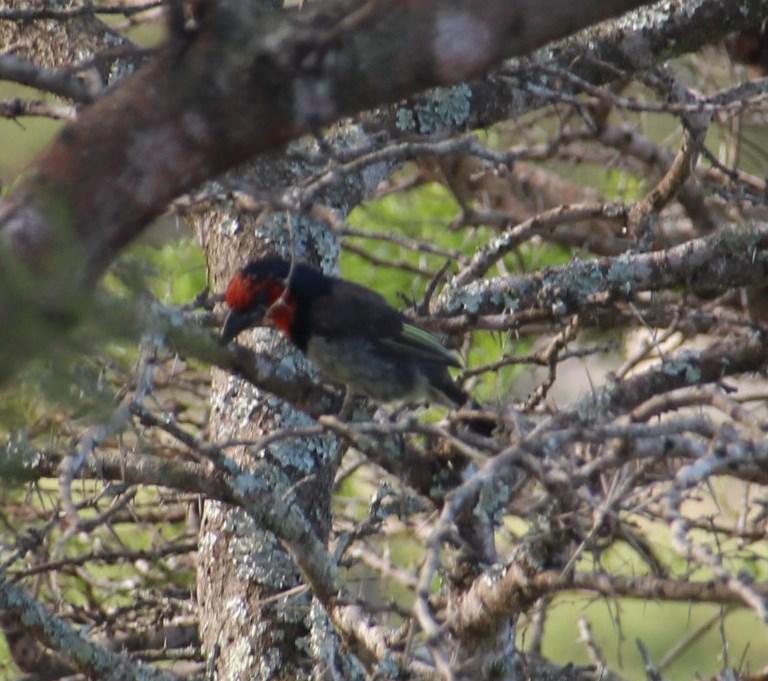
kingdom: Animalia
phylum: Chordata
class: Aves
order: Piciformes
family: Lybiidae
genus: Lybius
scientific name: Lybius torquatus
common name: Black-collared barbet
